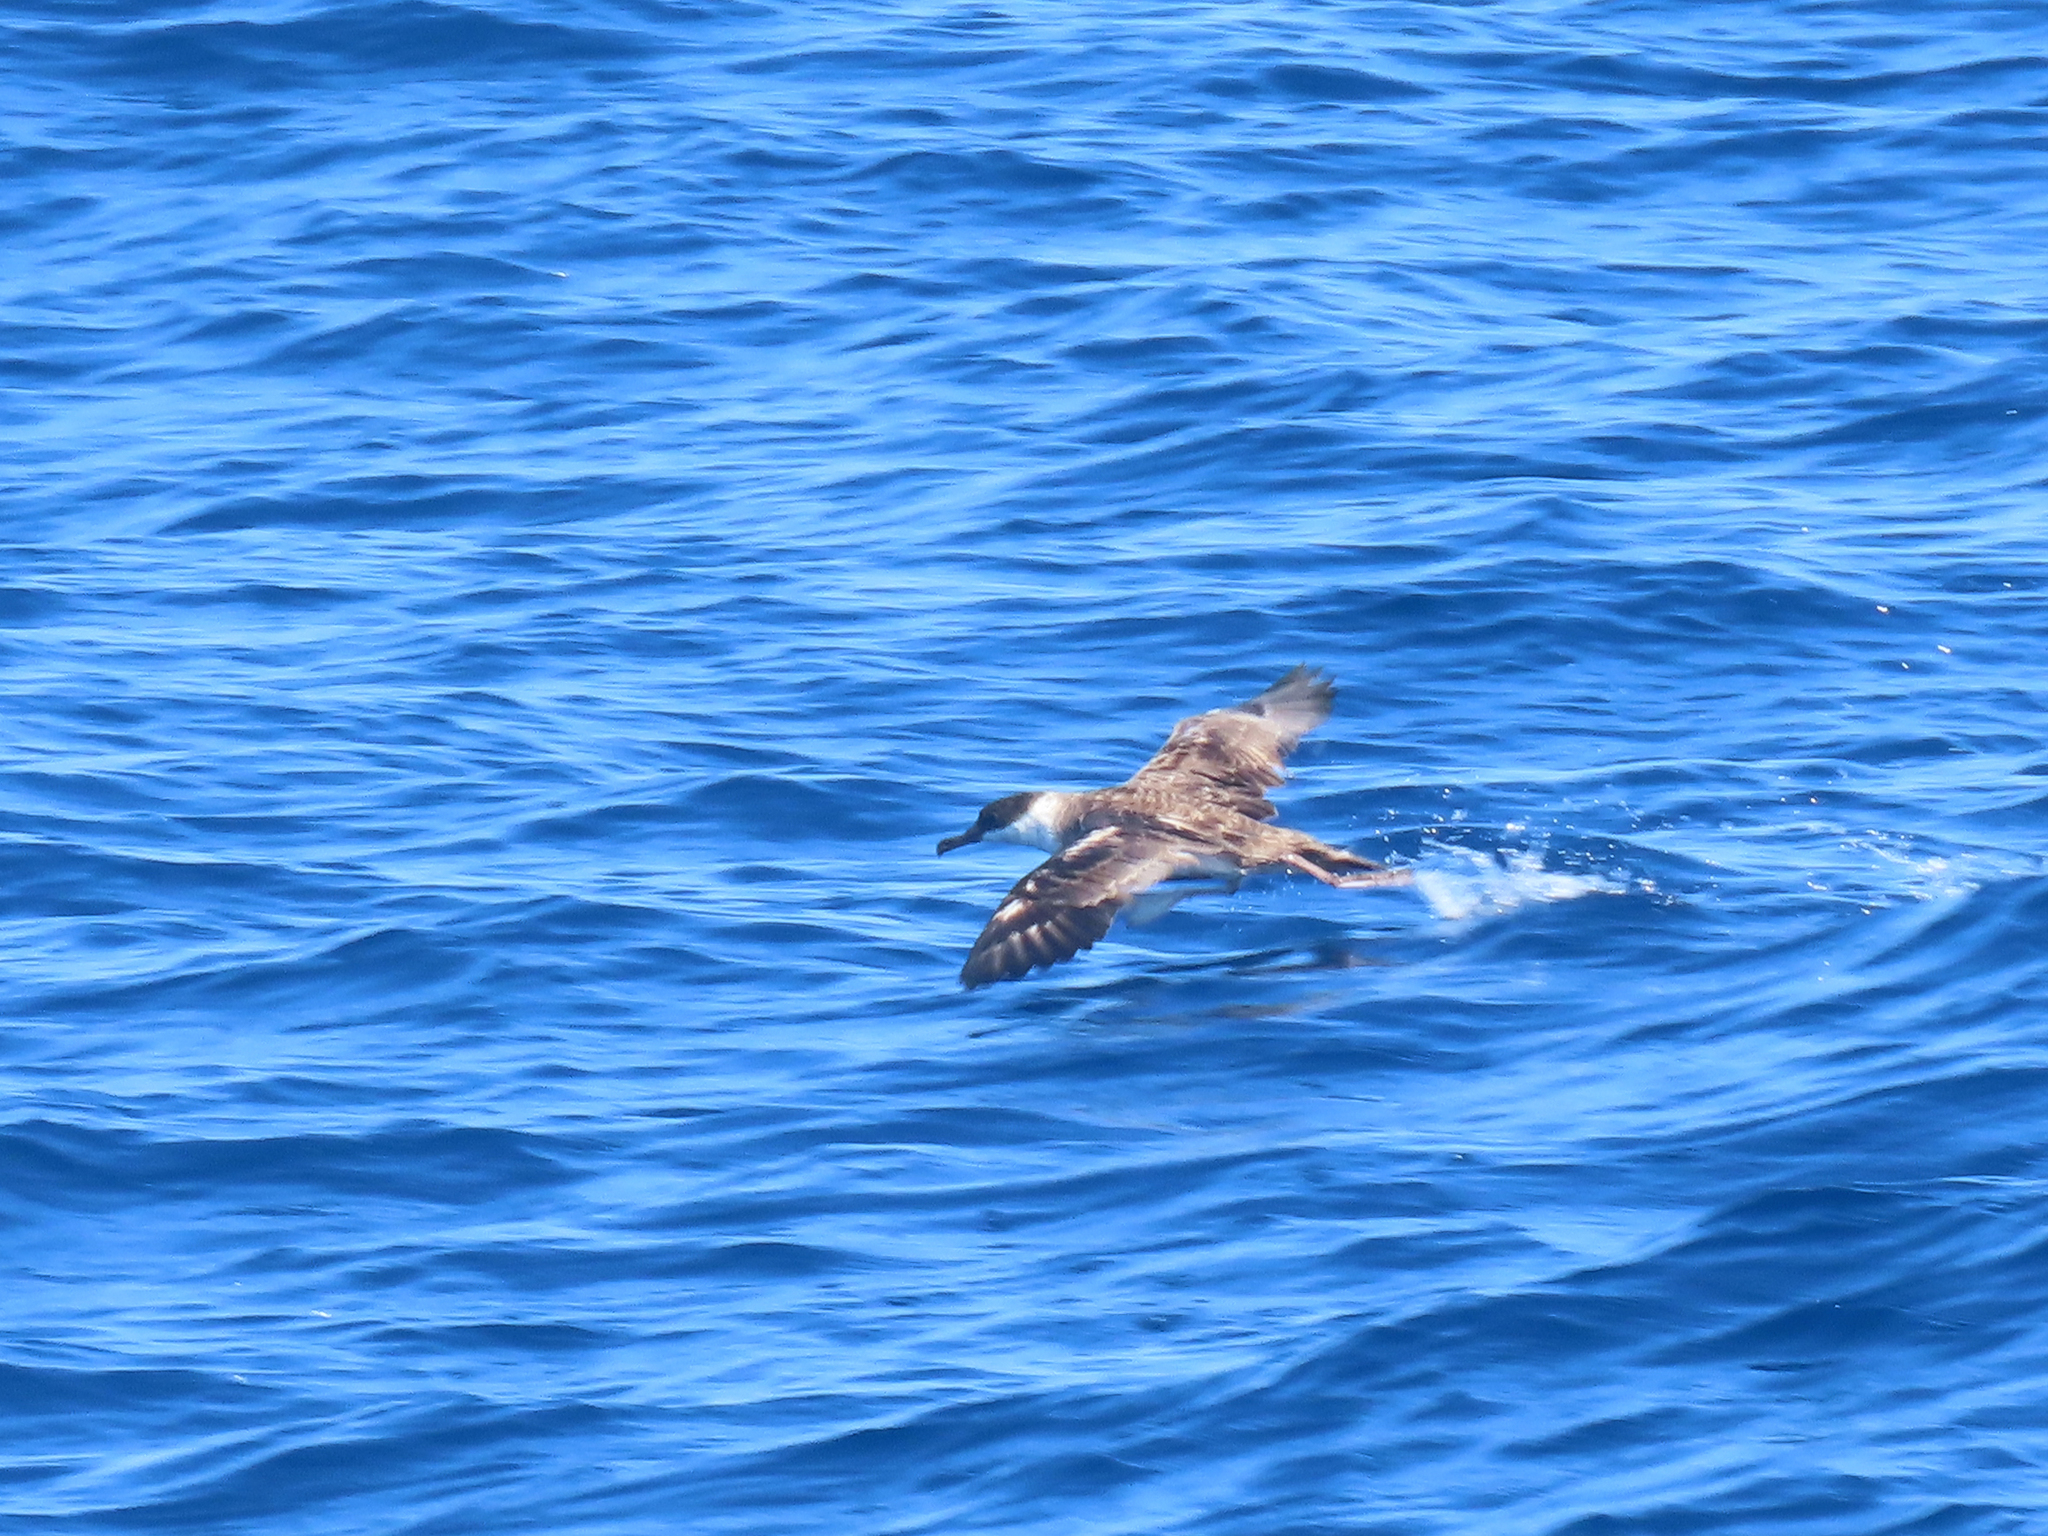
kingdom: Animalia
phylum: Chordata
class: Aves
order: Procellariiformes
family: Procellariidae
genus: Puffinus
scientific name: Puffinus gravis
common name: Great shearwater
